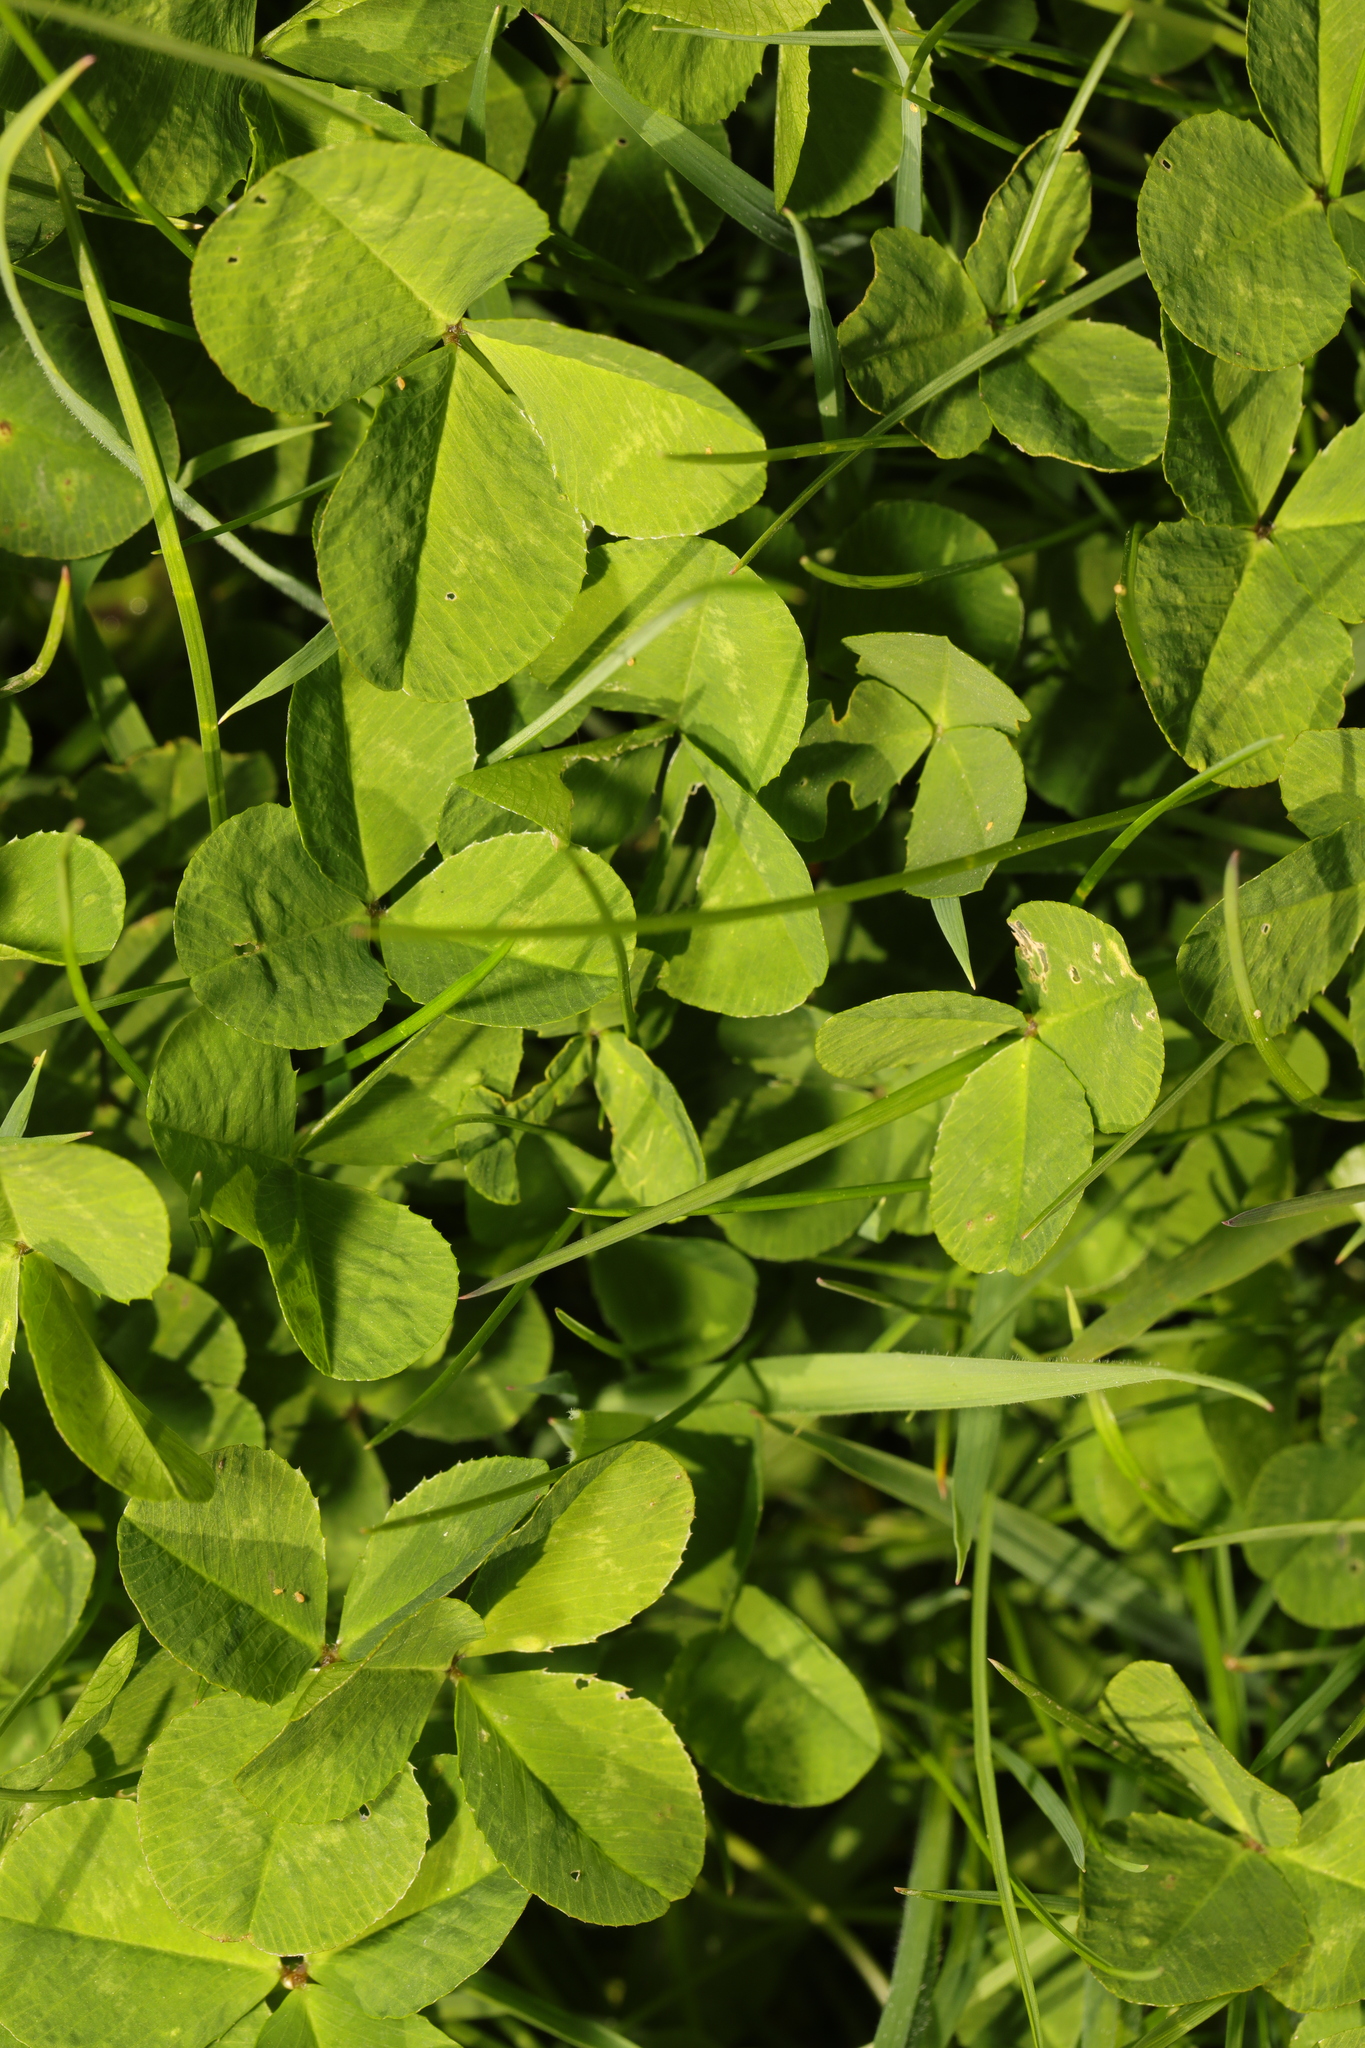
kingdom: Plantae
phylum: Tracheophyta
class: Magnoliopsida
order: Fabales
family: Fabaceae
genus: Trifolium
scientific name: Trifolium repens
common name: White clover
